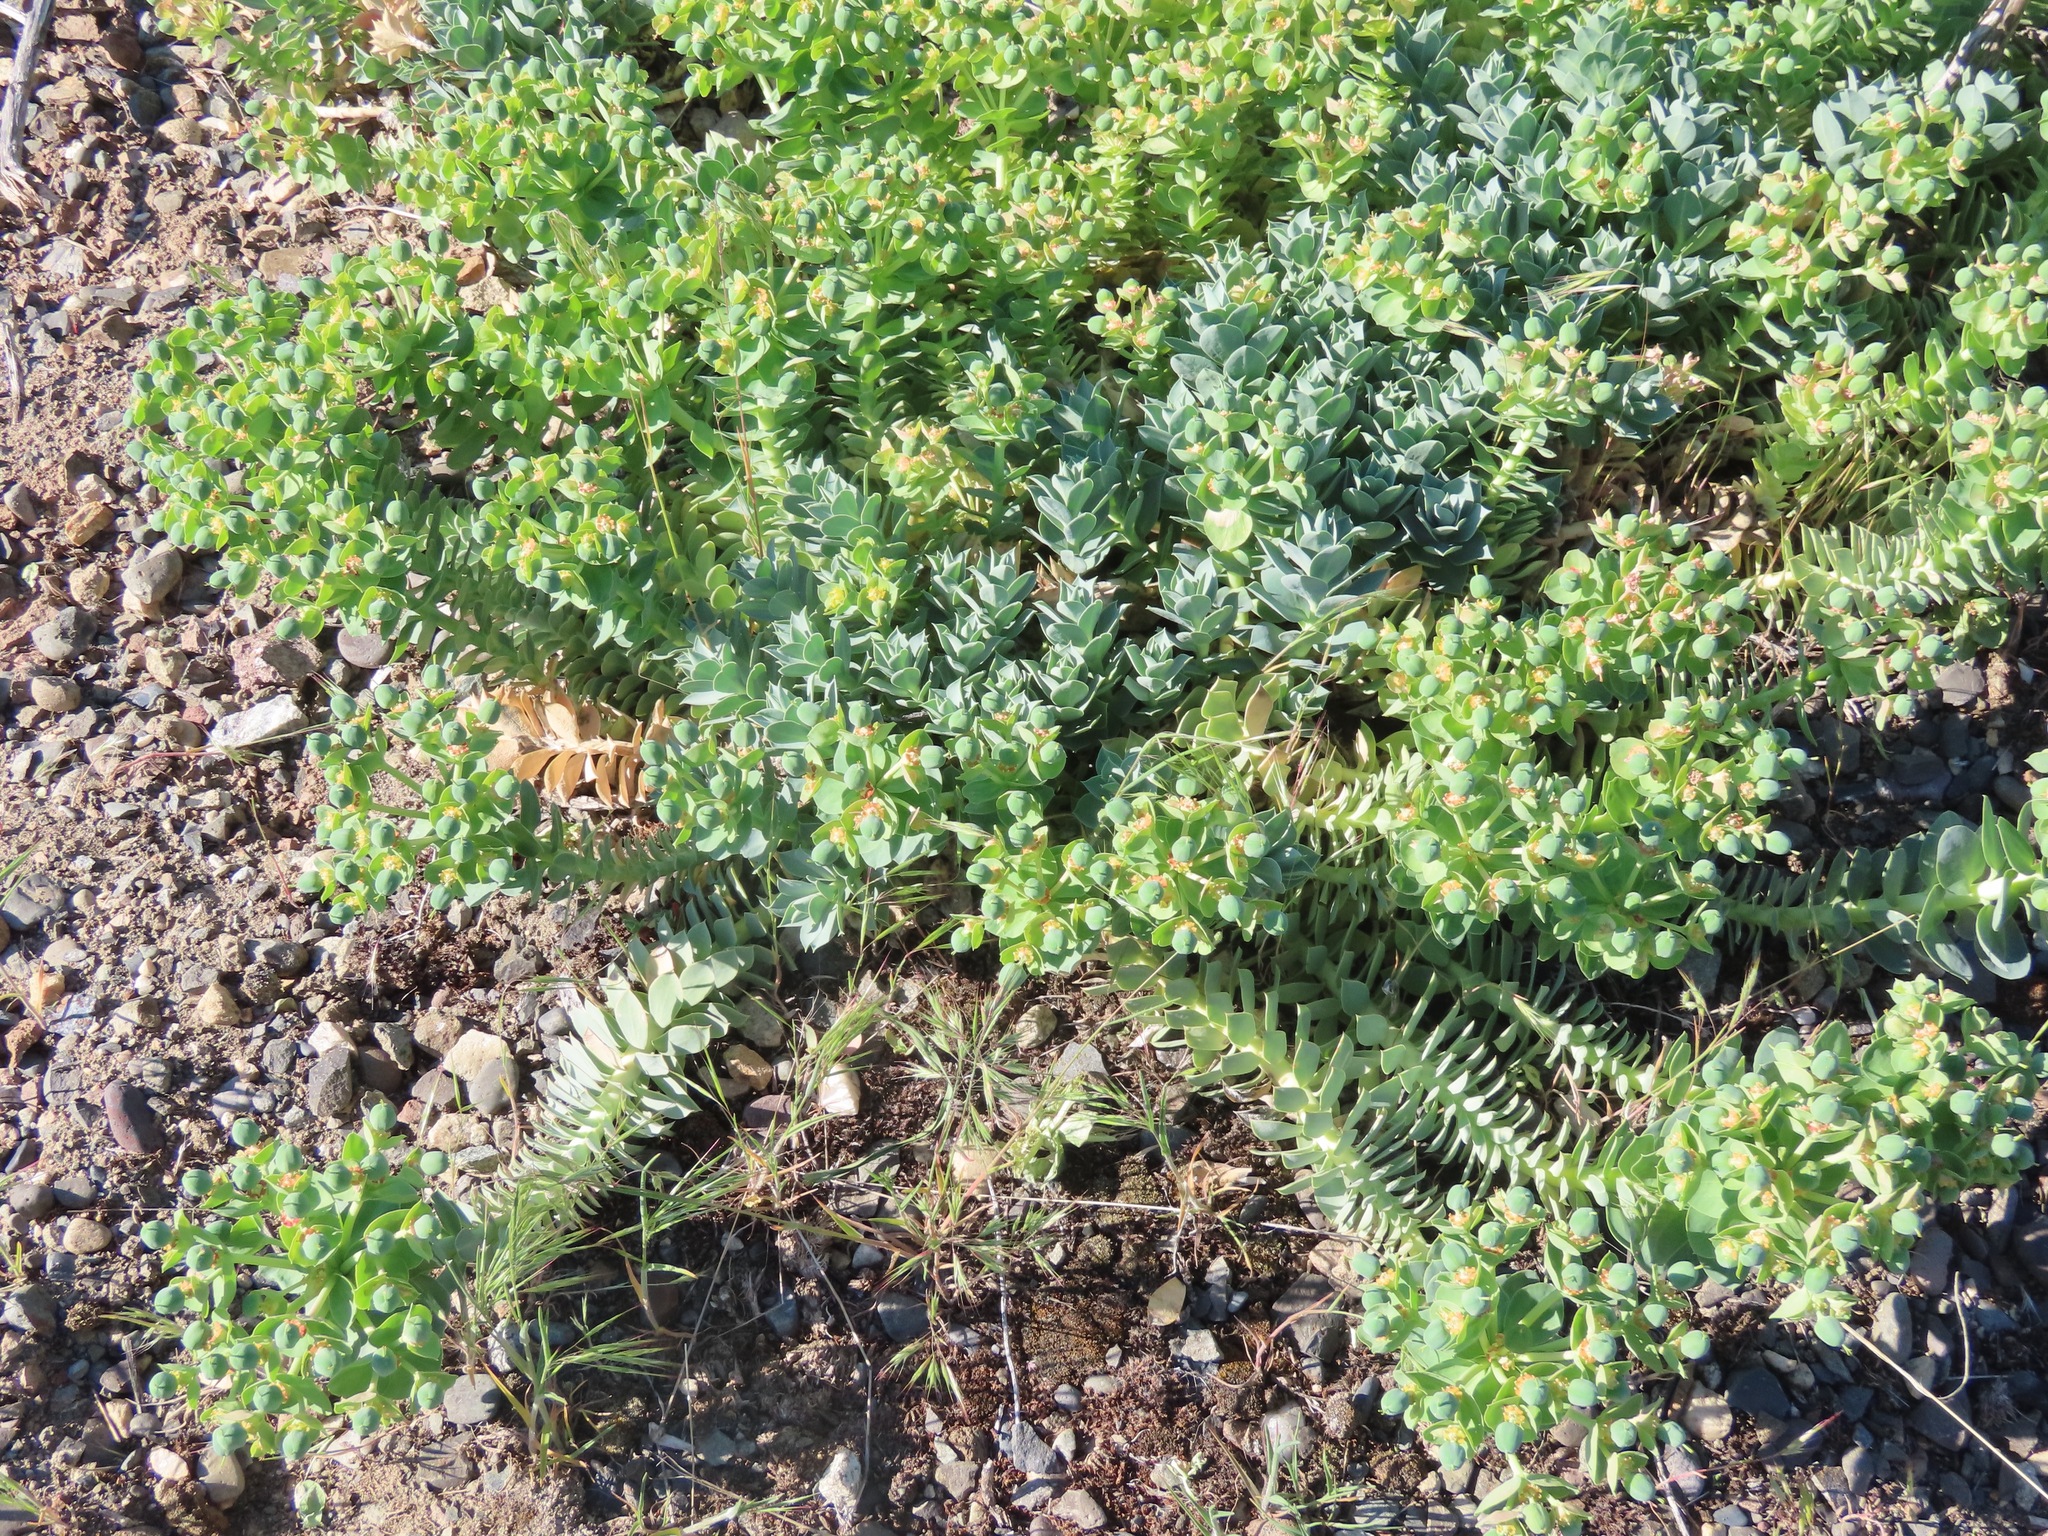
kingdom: Plantae
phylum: Tracheophyta
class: Magnoliopsida
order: Malpighiales
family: Euphorbiaceae
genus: Euphorbia
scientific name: Euphorbia myrsinites
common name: Myrtle spurge
